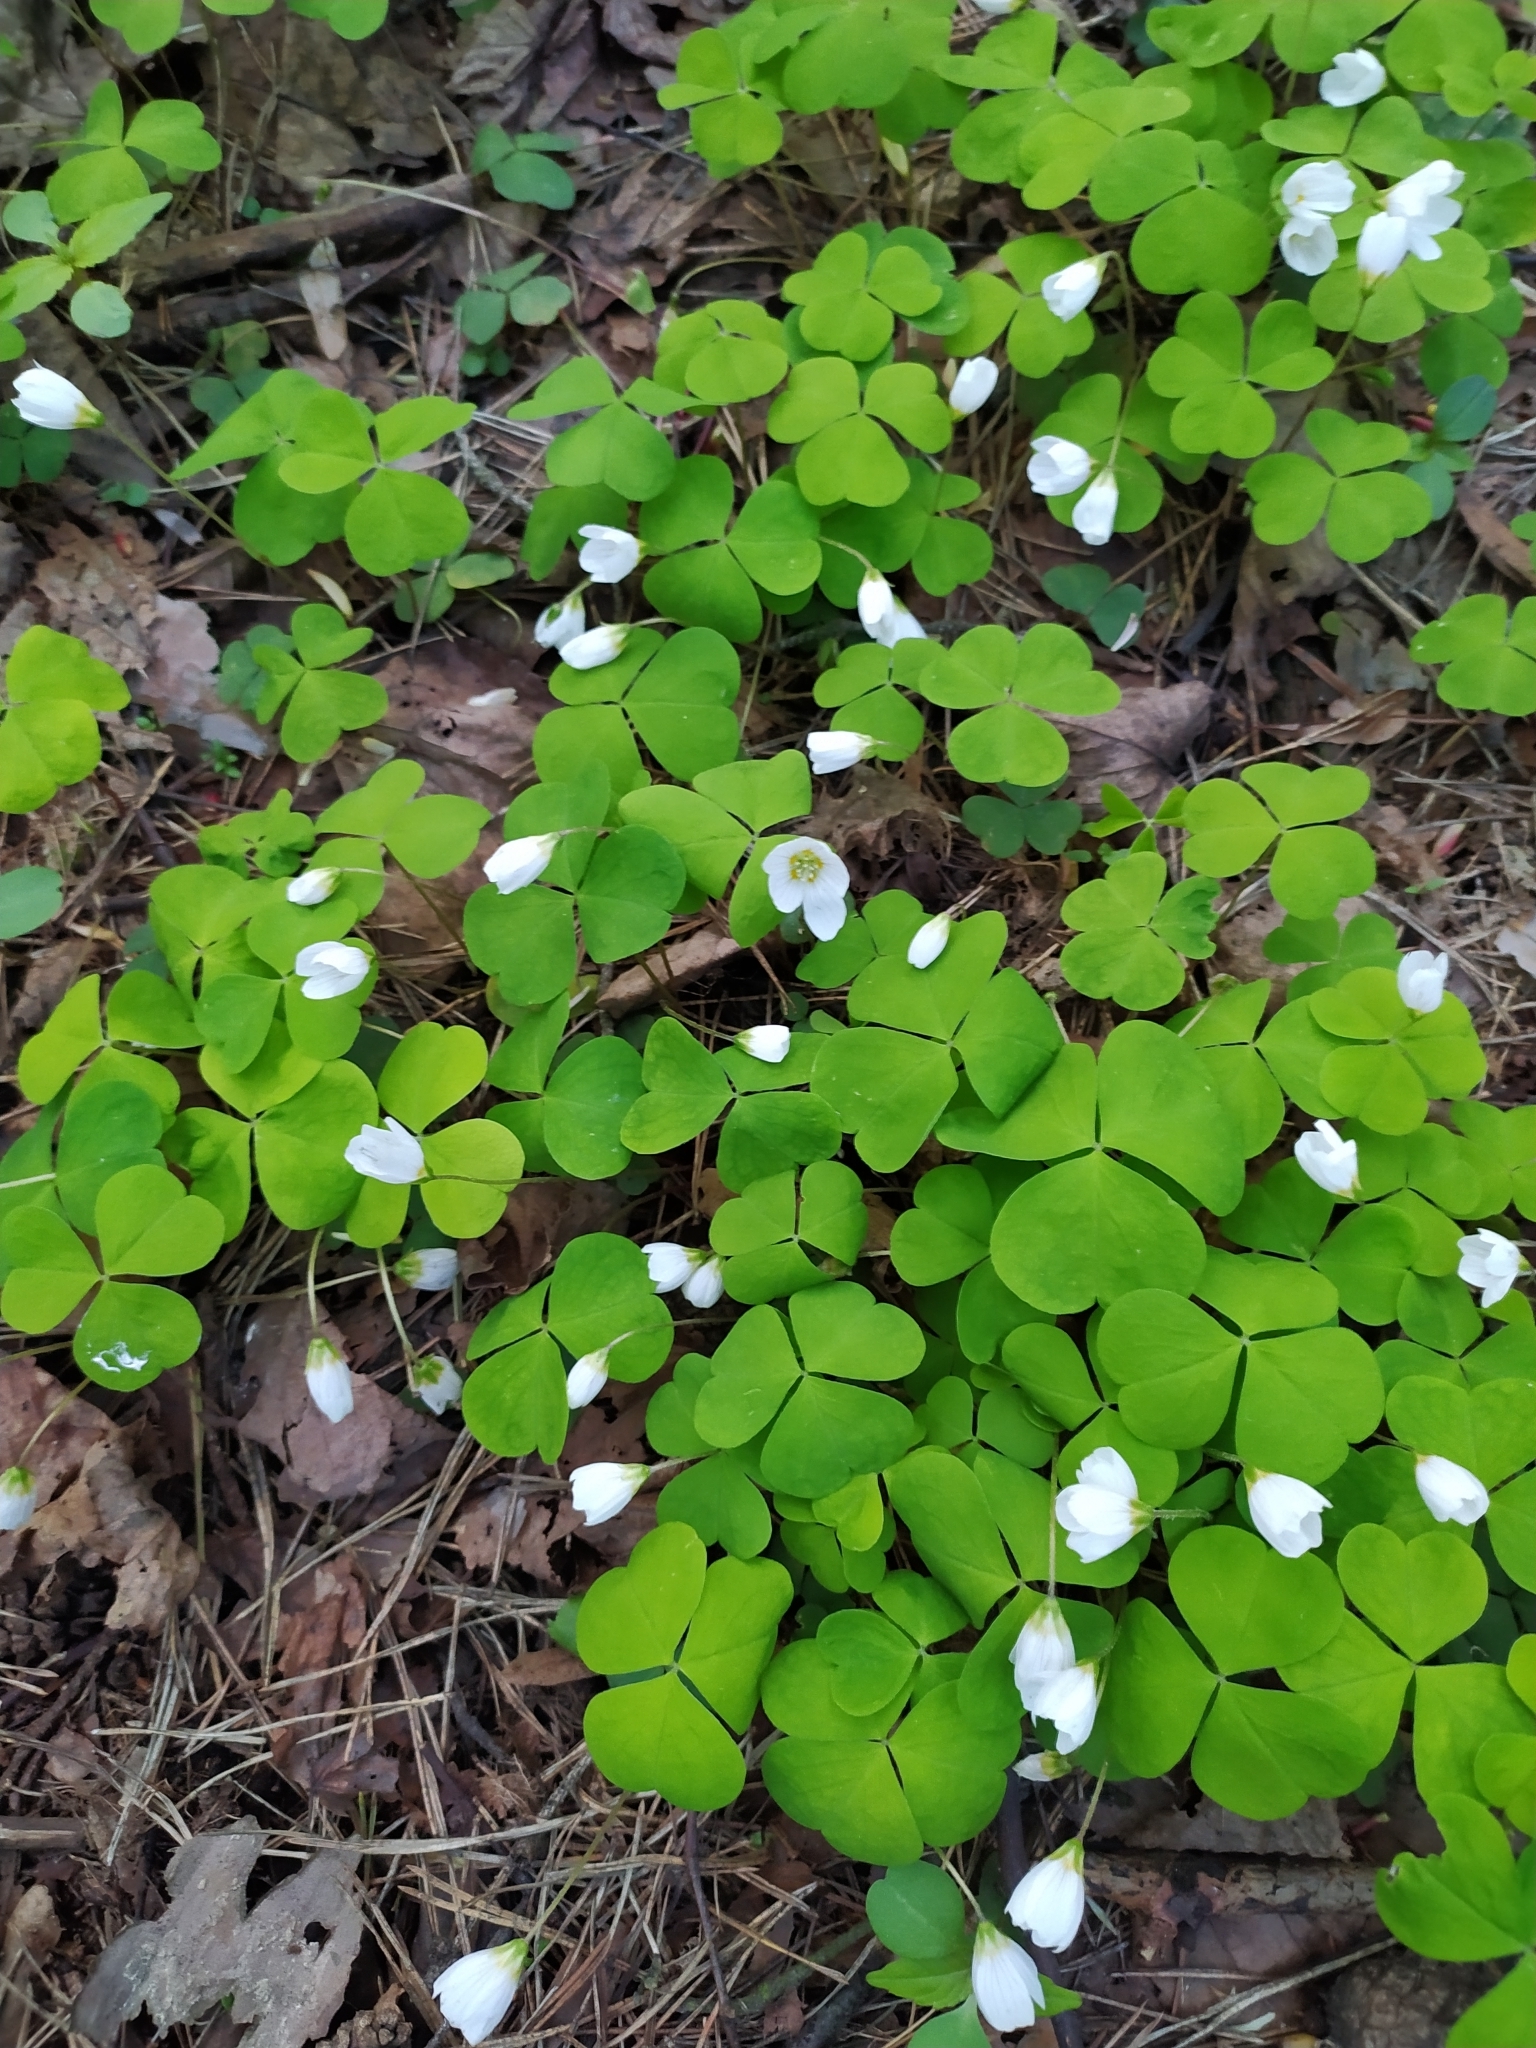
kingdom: Plantae
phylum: Tracheophyta
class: Magnoliopsida
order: Oxalidales
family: Oxalidaceae
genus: Oxalis
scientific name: Oxalis acetosella
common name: Wood-sorrel
